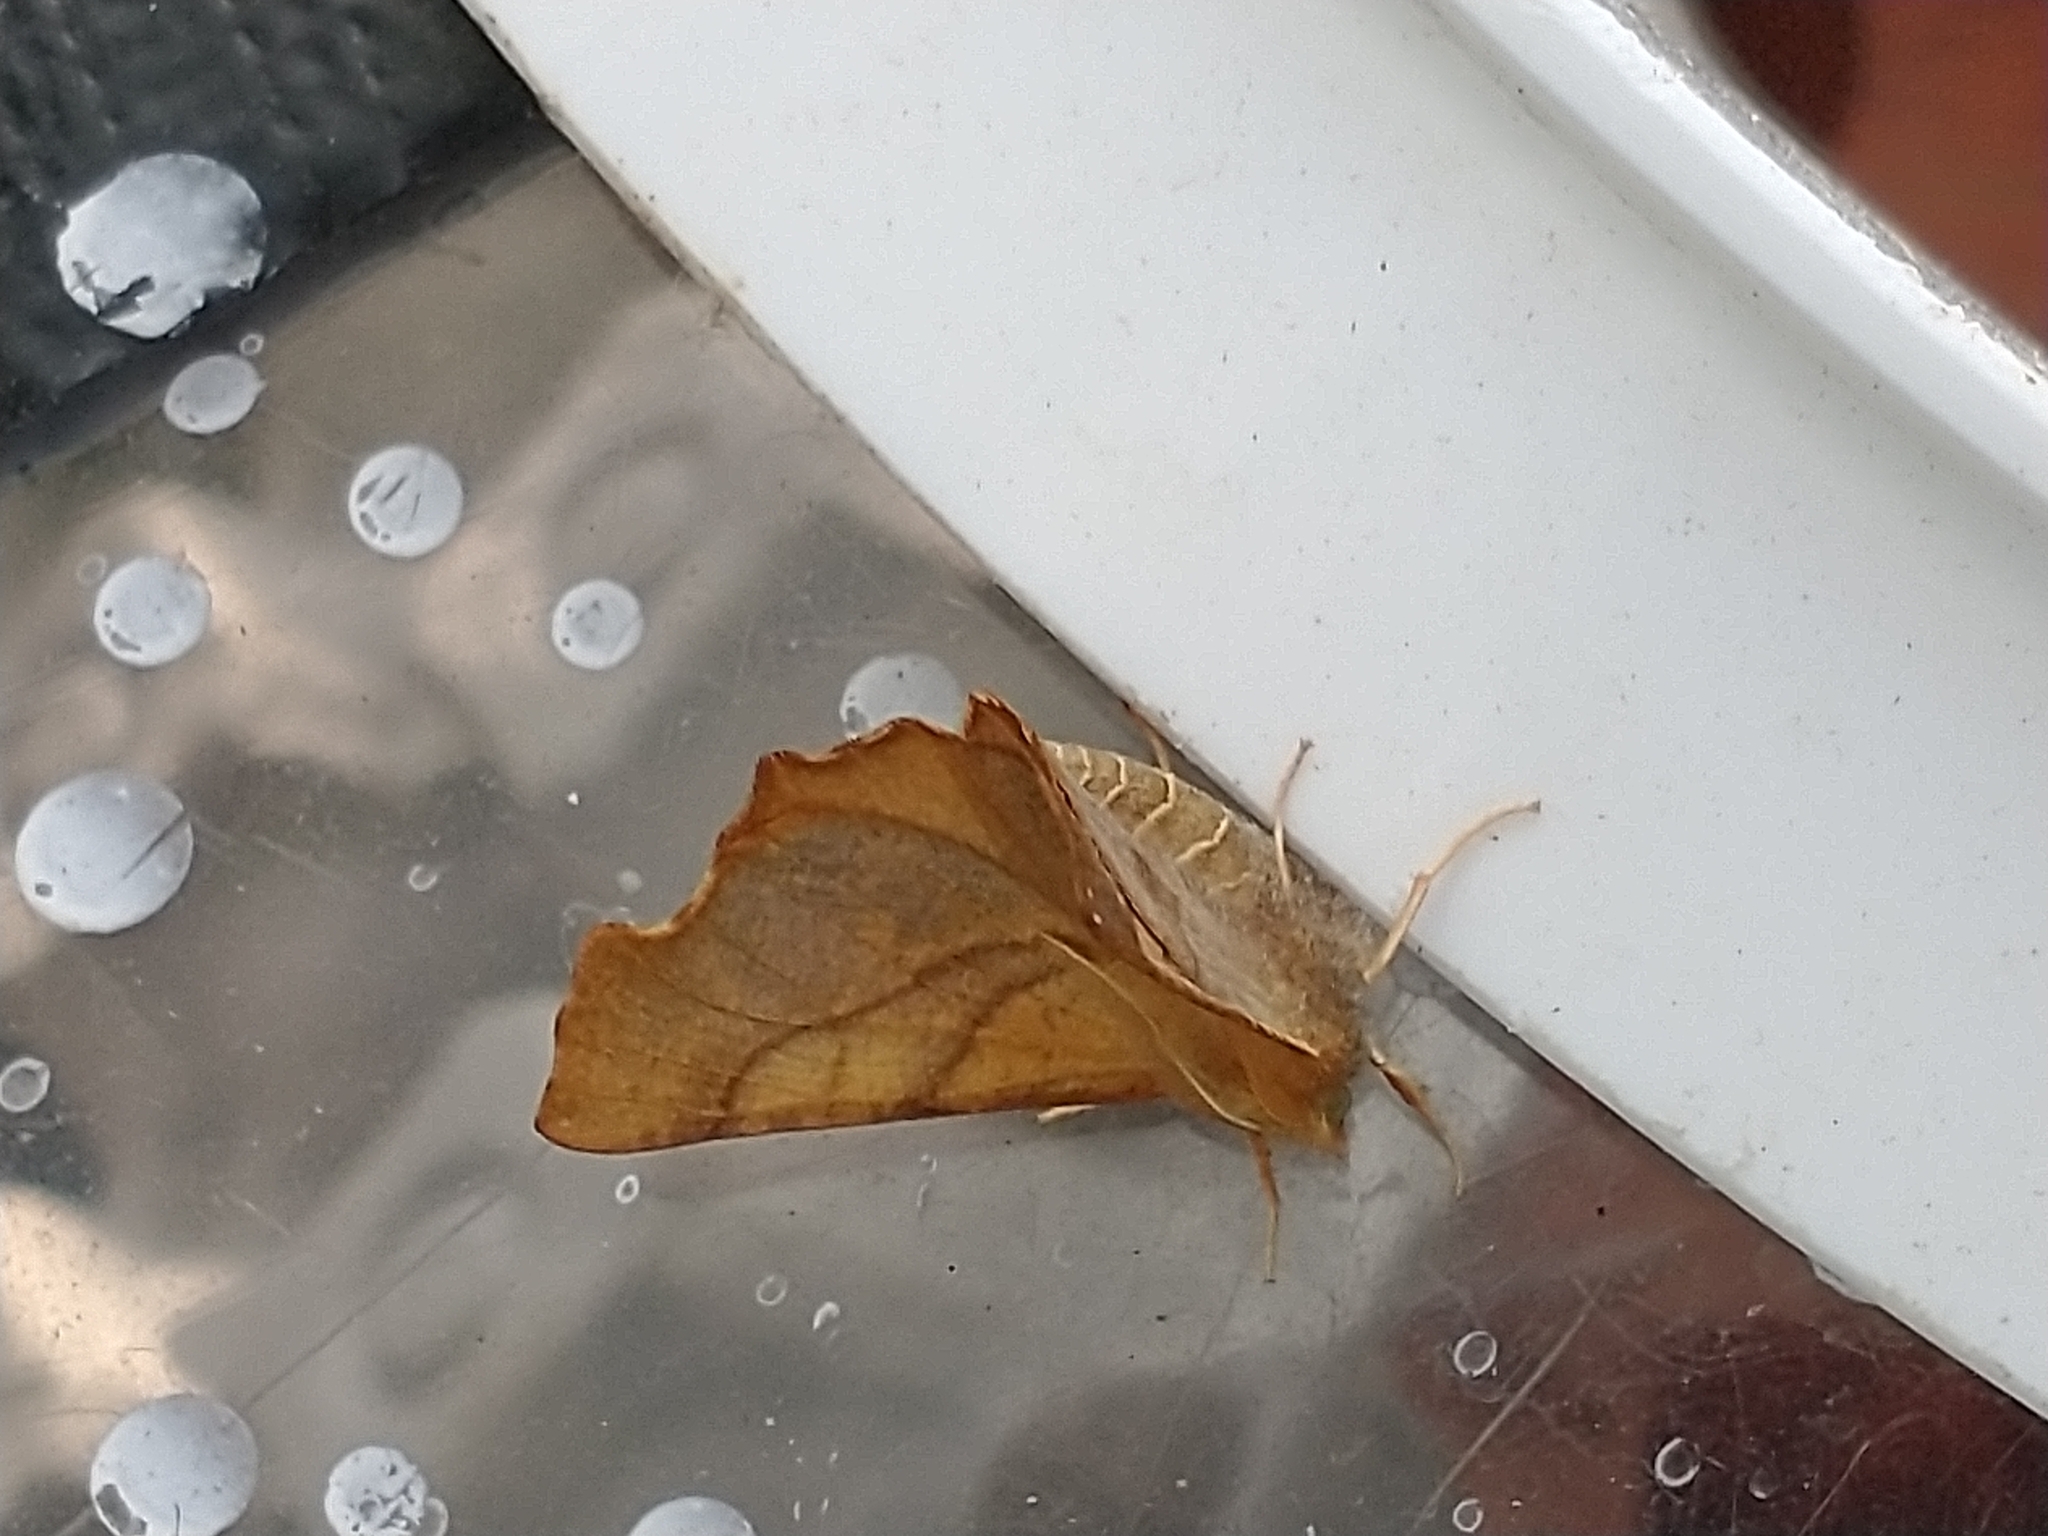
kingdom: Animalia
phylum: Arthropoda
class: Insecta
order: Lepidoptera
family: Geometridae
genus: Ennomos
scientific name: Ennomos fuscantaria
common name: Dusky thorn
